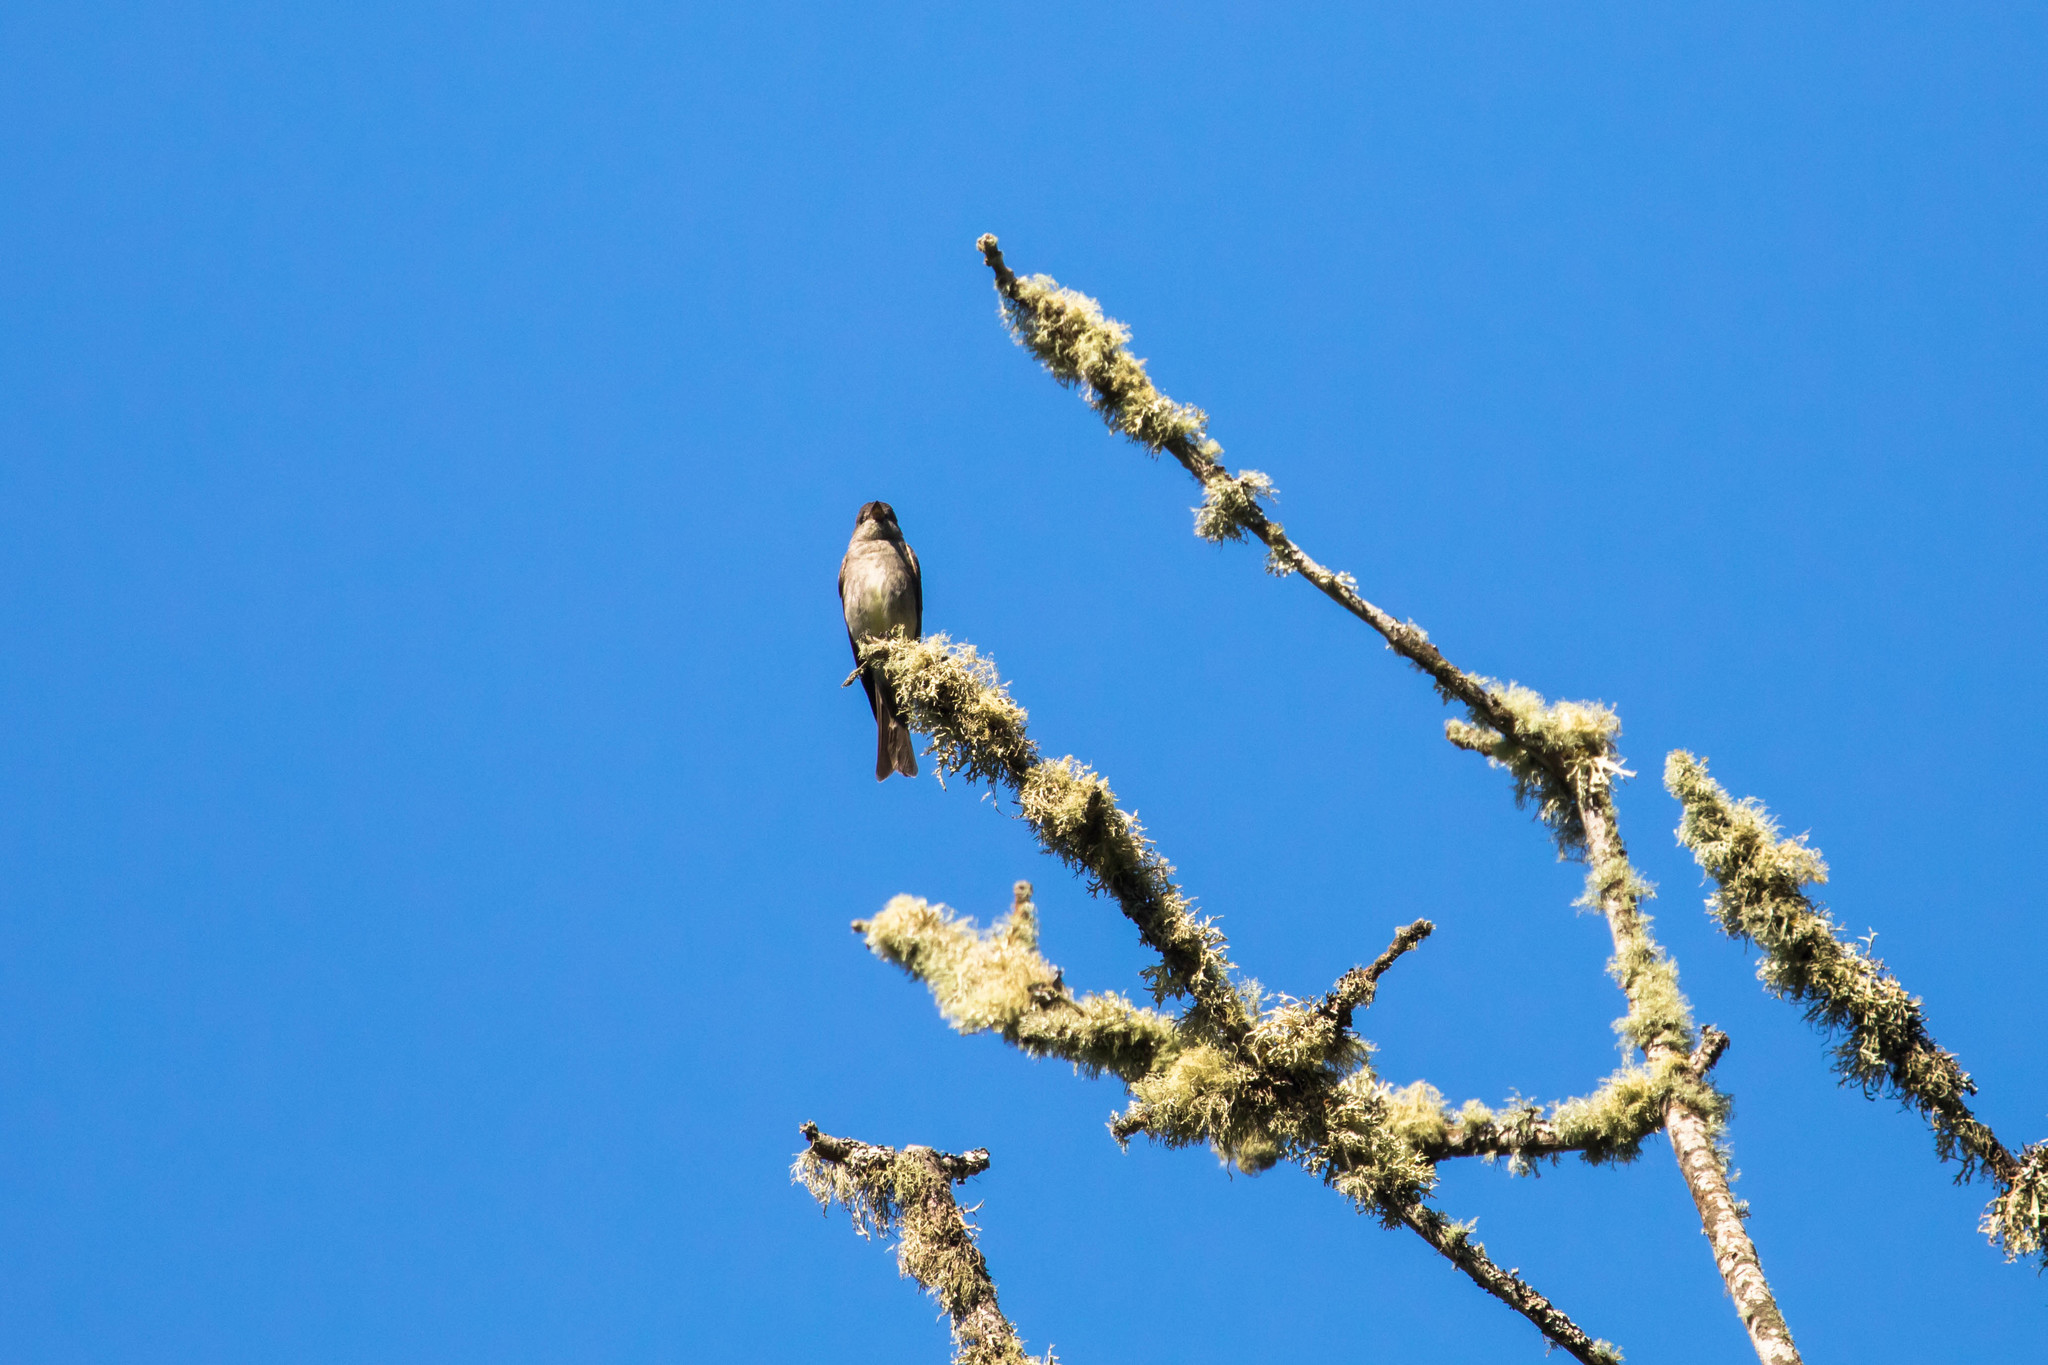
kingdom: Animalia
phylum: Chordata
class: Aves
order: Passeriformes
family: Tyrannidae
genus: Contopus
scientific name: Contopus sordidulus
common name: Western wood-pewee
